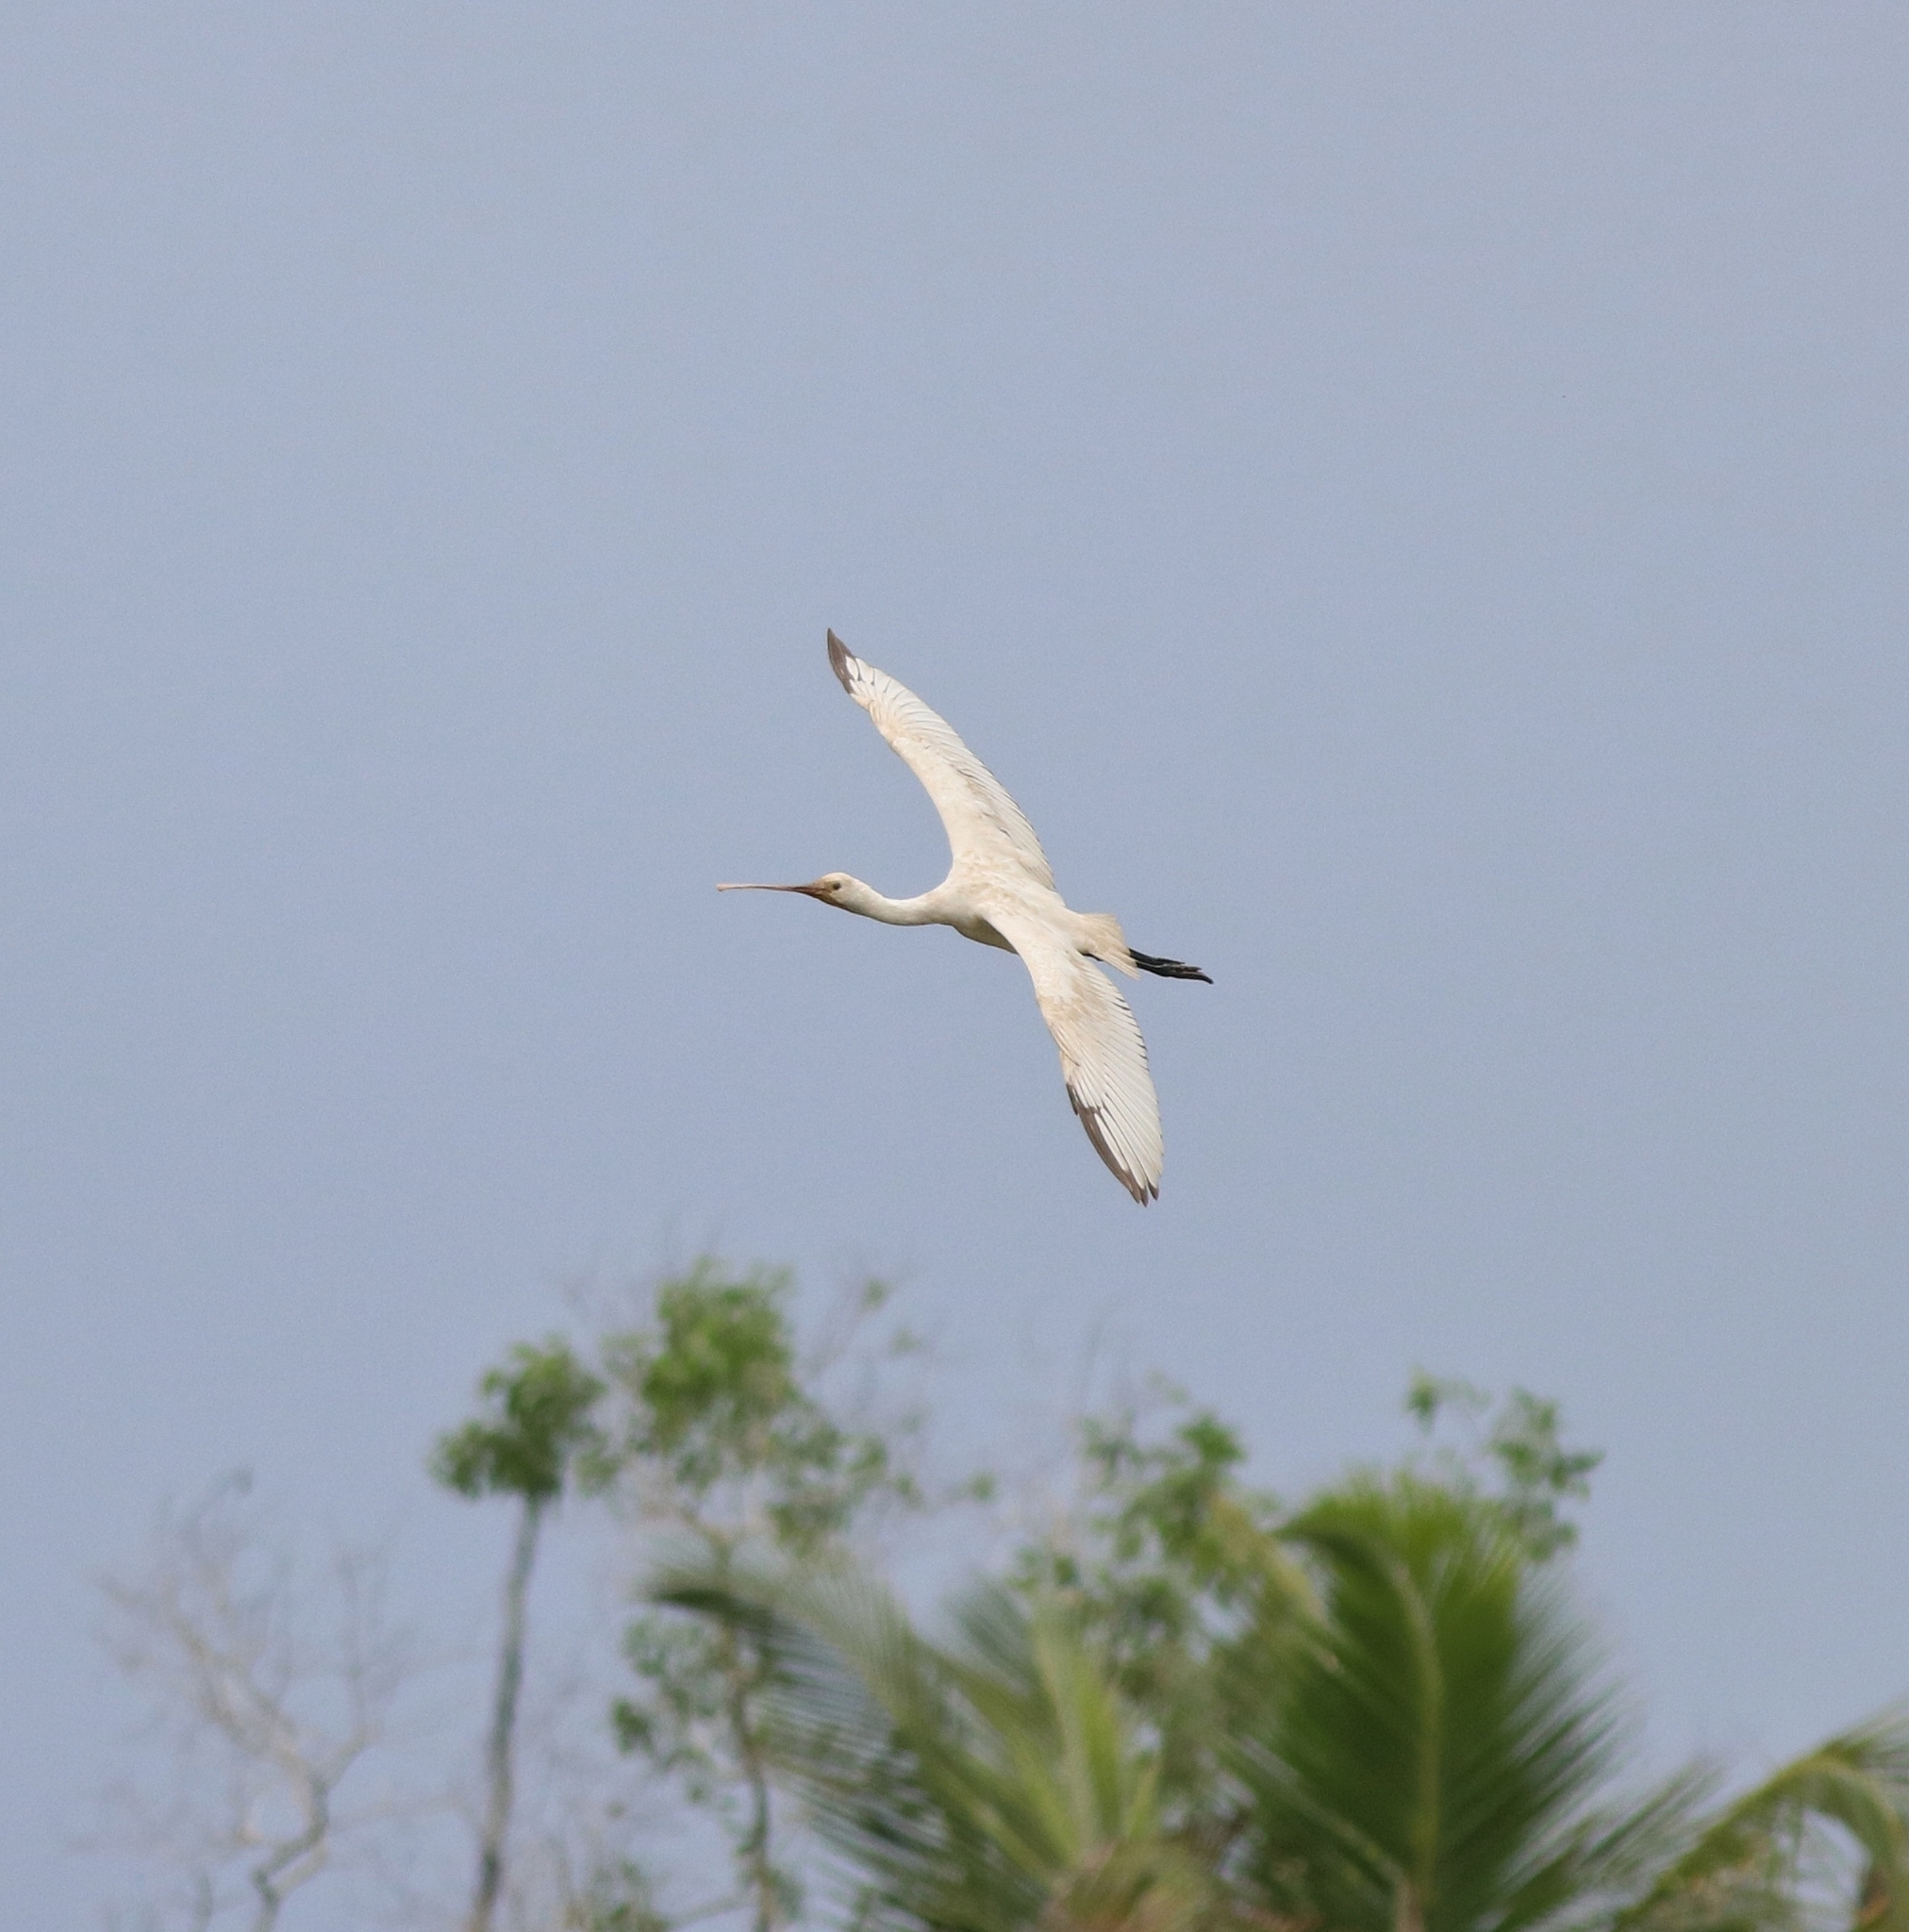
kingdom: Animalia
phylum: Chordata
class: Aves
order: Pelecaniformes
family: Threskiornithidae
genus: Platalea
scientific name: Platalea leucorodia
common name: Eurasian spoonbill
